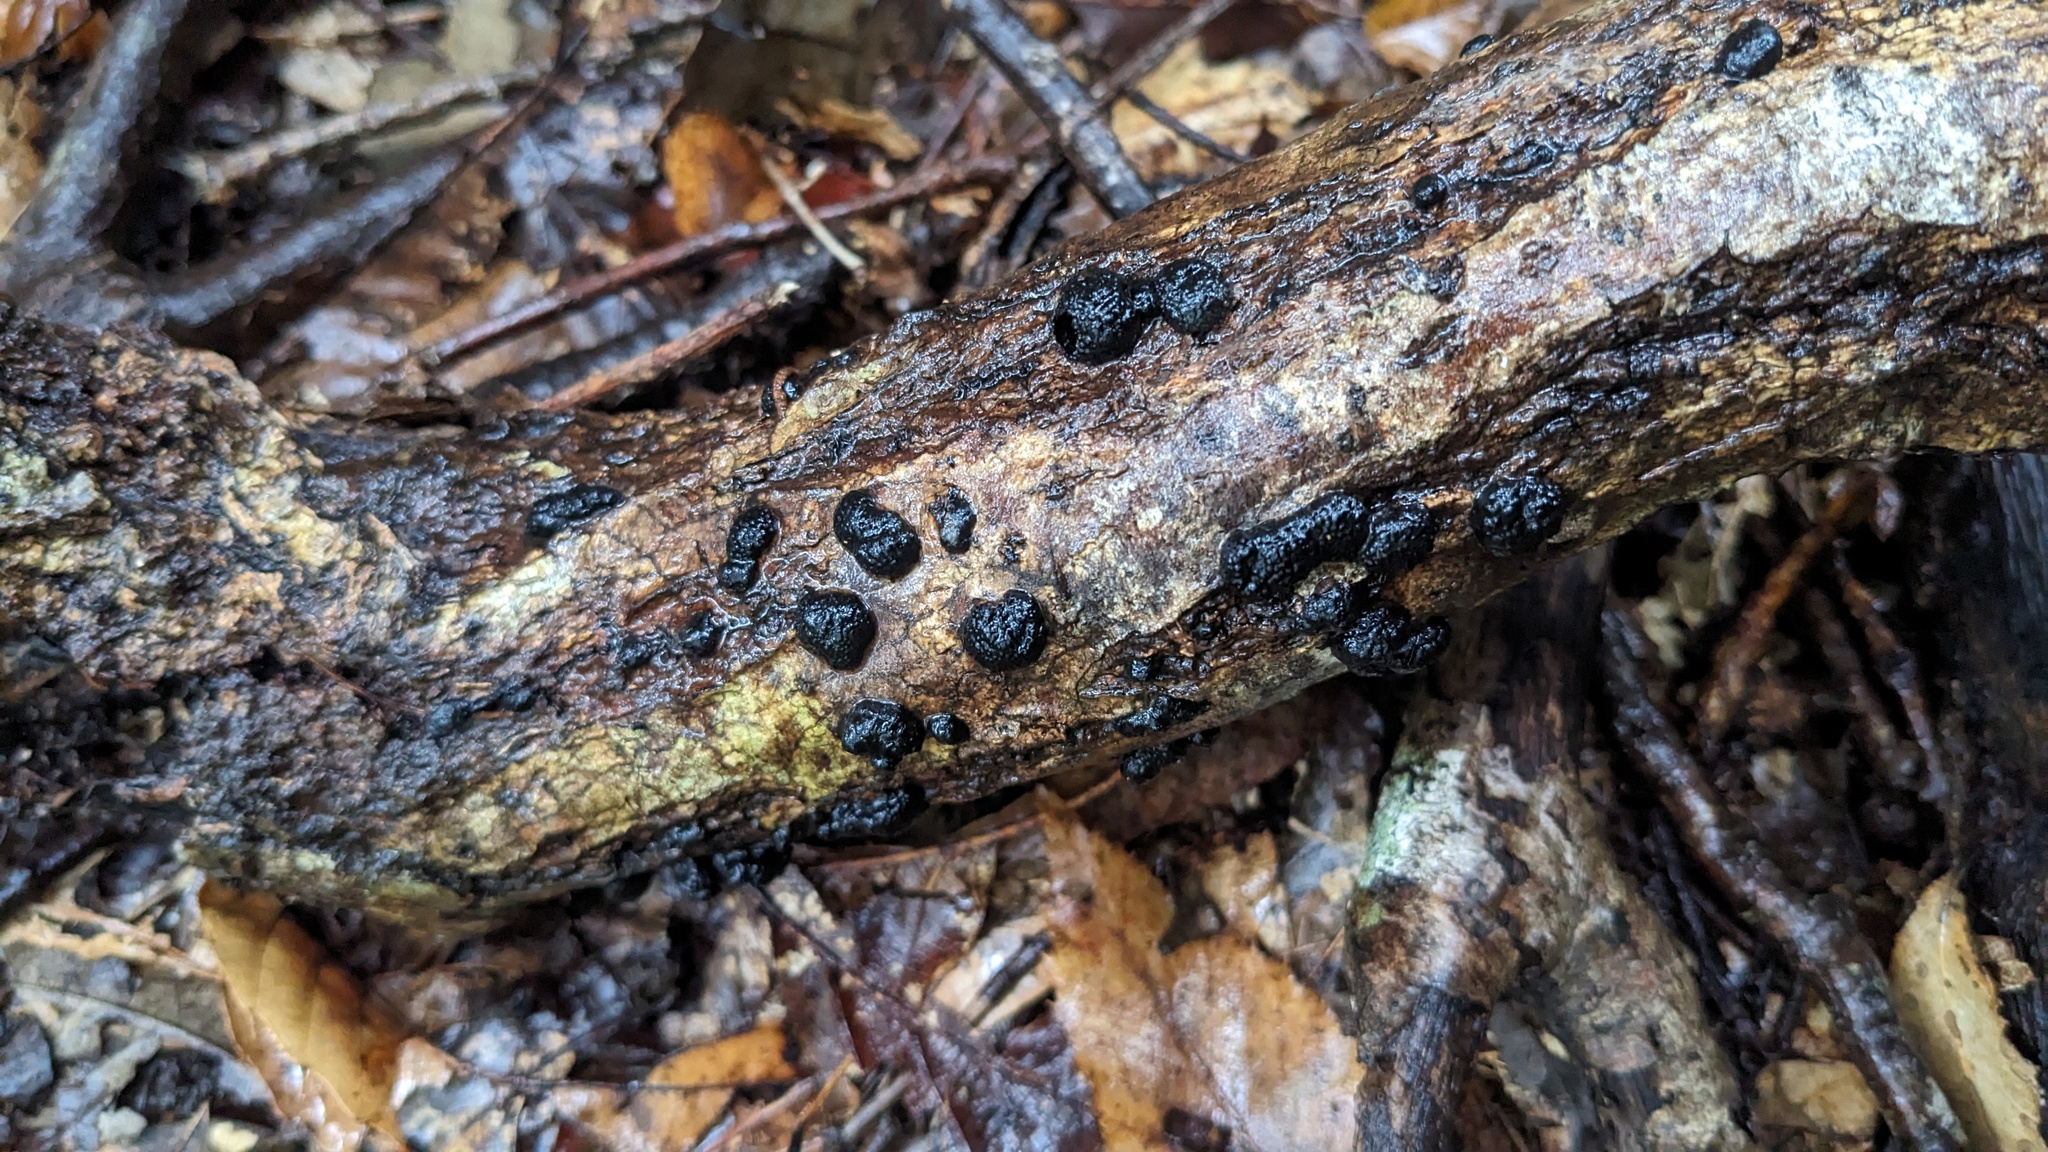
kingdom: Fungi
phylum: Ascomycota
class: Sordariomycetes
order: Xylariales
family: Hypoxylaceae
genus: Annulohypoxylon
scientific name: Annulohypoxylon truncatum
